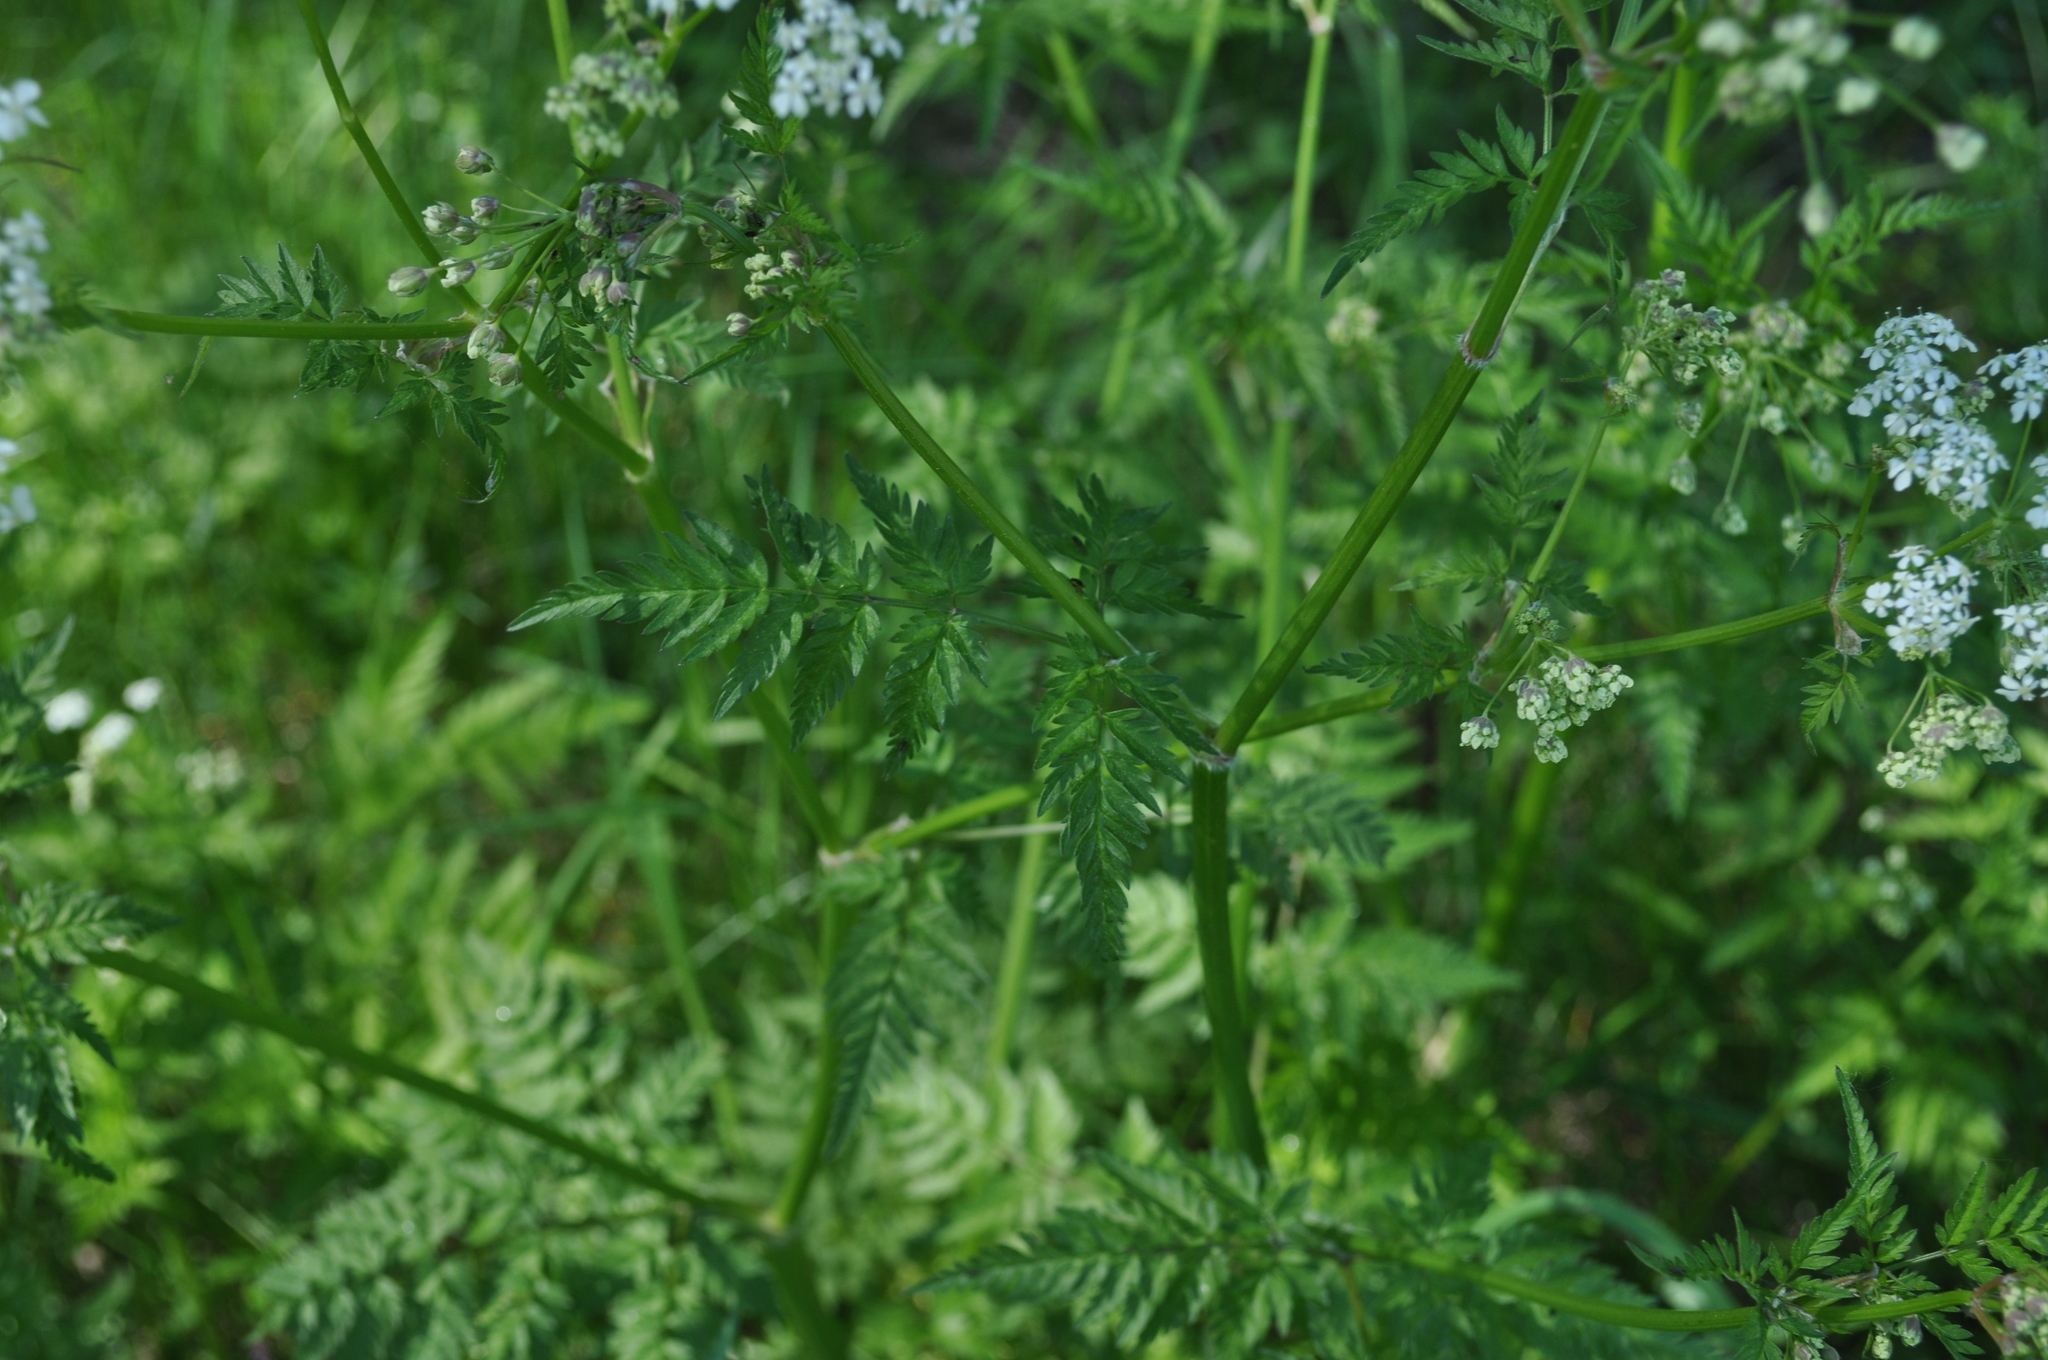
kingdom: Plantae
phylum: Tracheophyta
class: Magnoliopsida
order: Apiales
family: Apiaceae
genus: Anthriscus
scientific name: Anthriscus sylvestris
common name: Cow parsley
